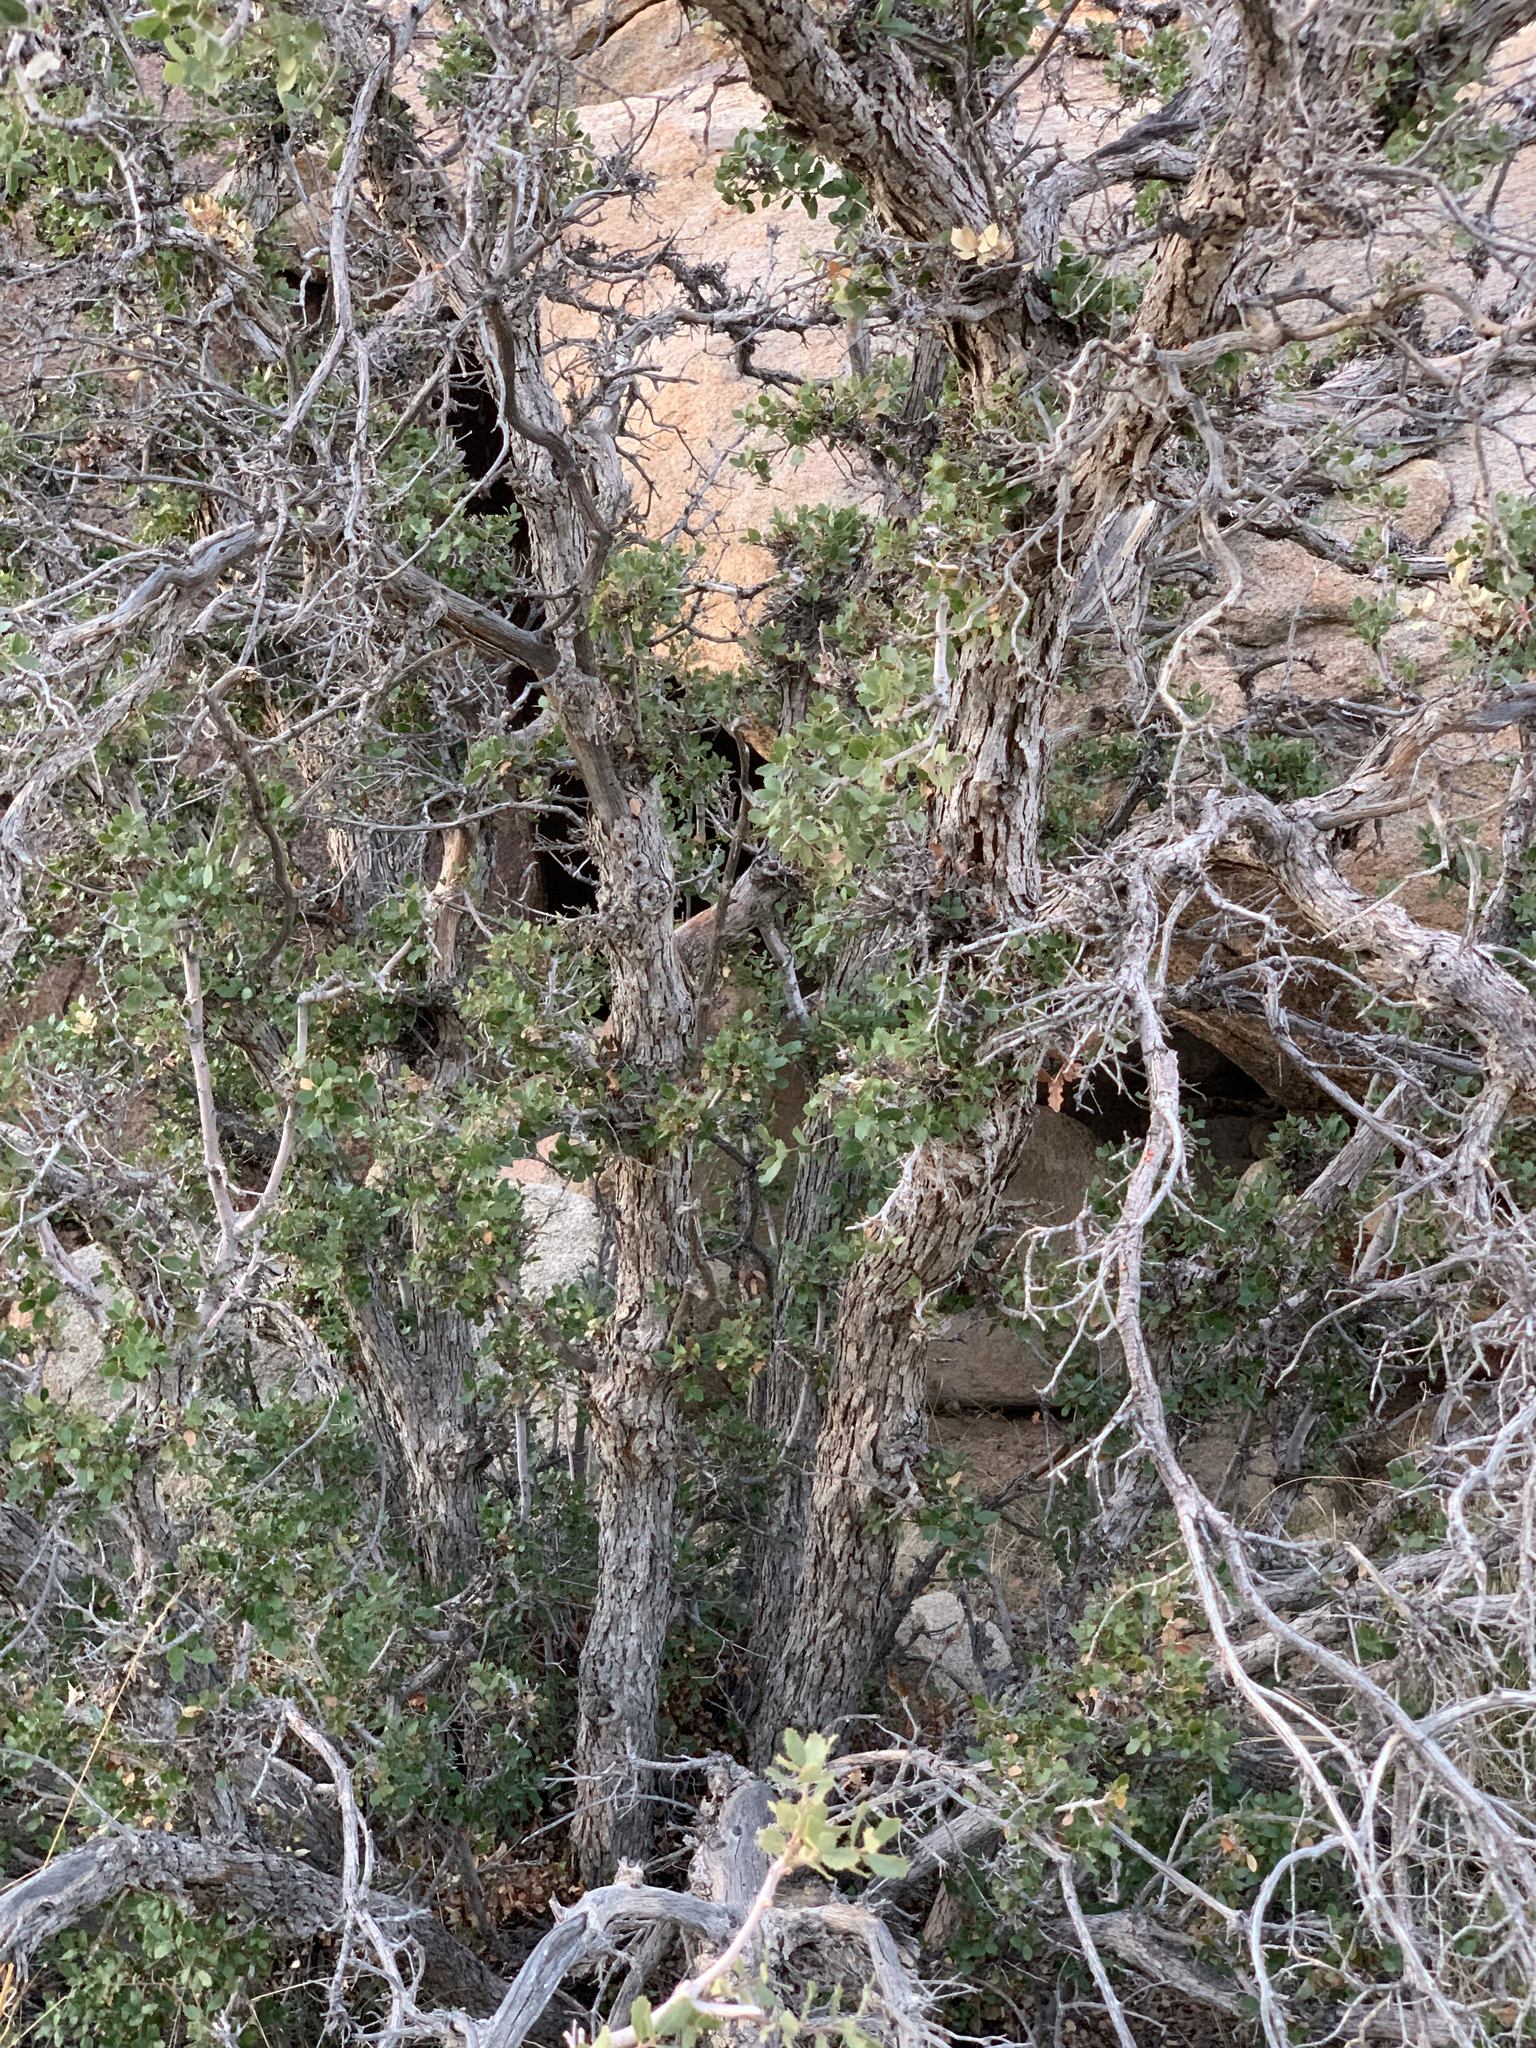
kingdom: Plantae
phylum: Tracheophyta
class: Magnoliopsida
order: Fagales
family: Fagaceae
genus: Quercus
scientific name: Quercus cornelius-mulleri
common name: Muller oak
